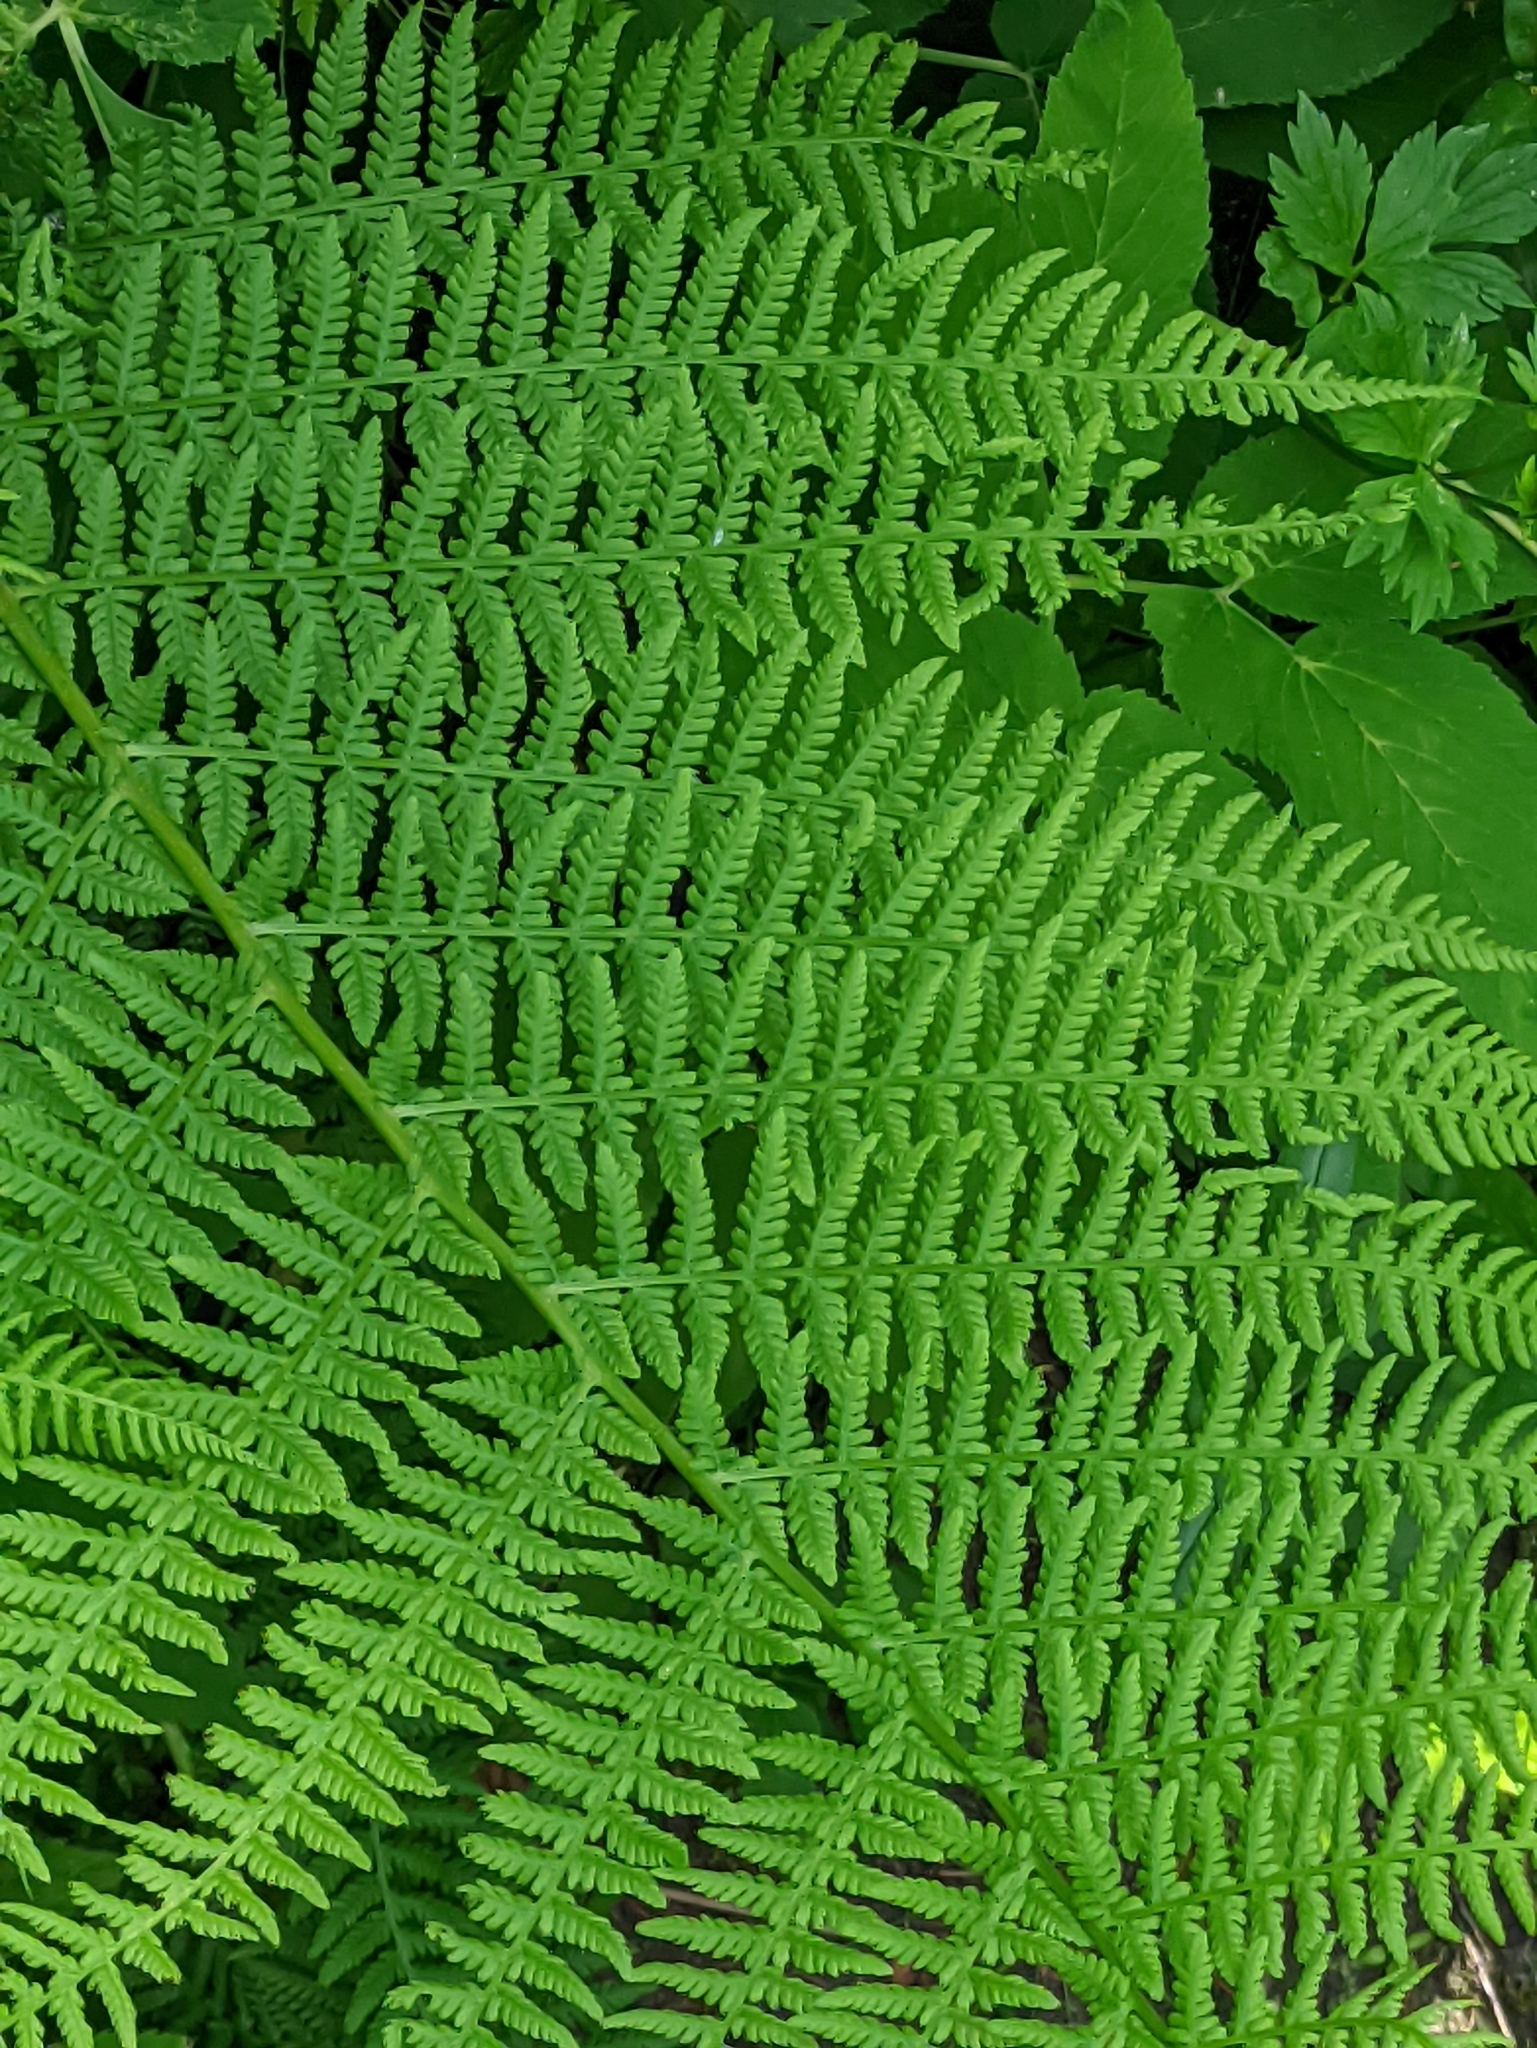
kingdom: Plantae
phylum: Tracheophyta
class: Polypodiopsida
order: Polypodiales
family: Athyriaceae
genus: Athyrium
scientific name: Athyrium filix-femina
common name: Lady fern
